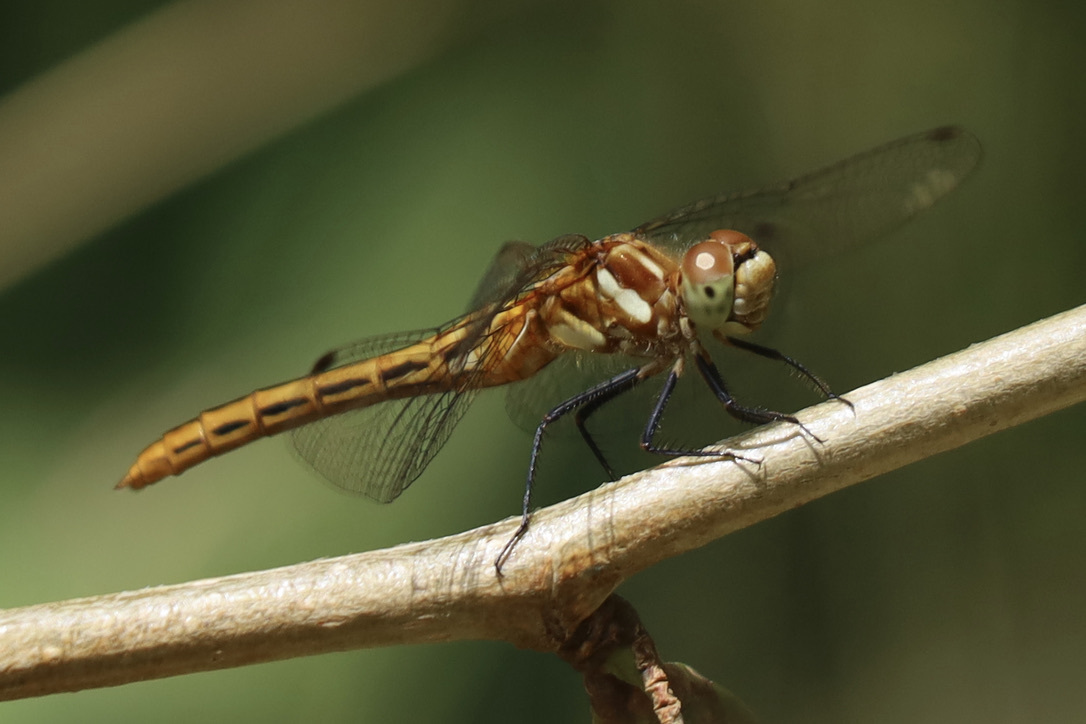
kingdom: Animalia
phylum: Arthropoda
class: Insecta
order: Odonata
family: Libellulidae
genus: Sympetrum
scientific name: Sympetrum pallipes
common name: Striped meadowhawk
